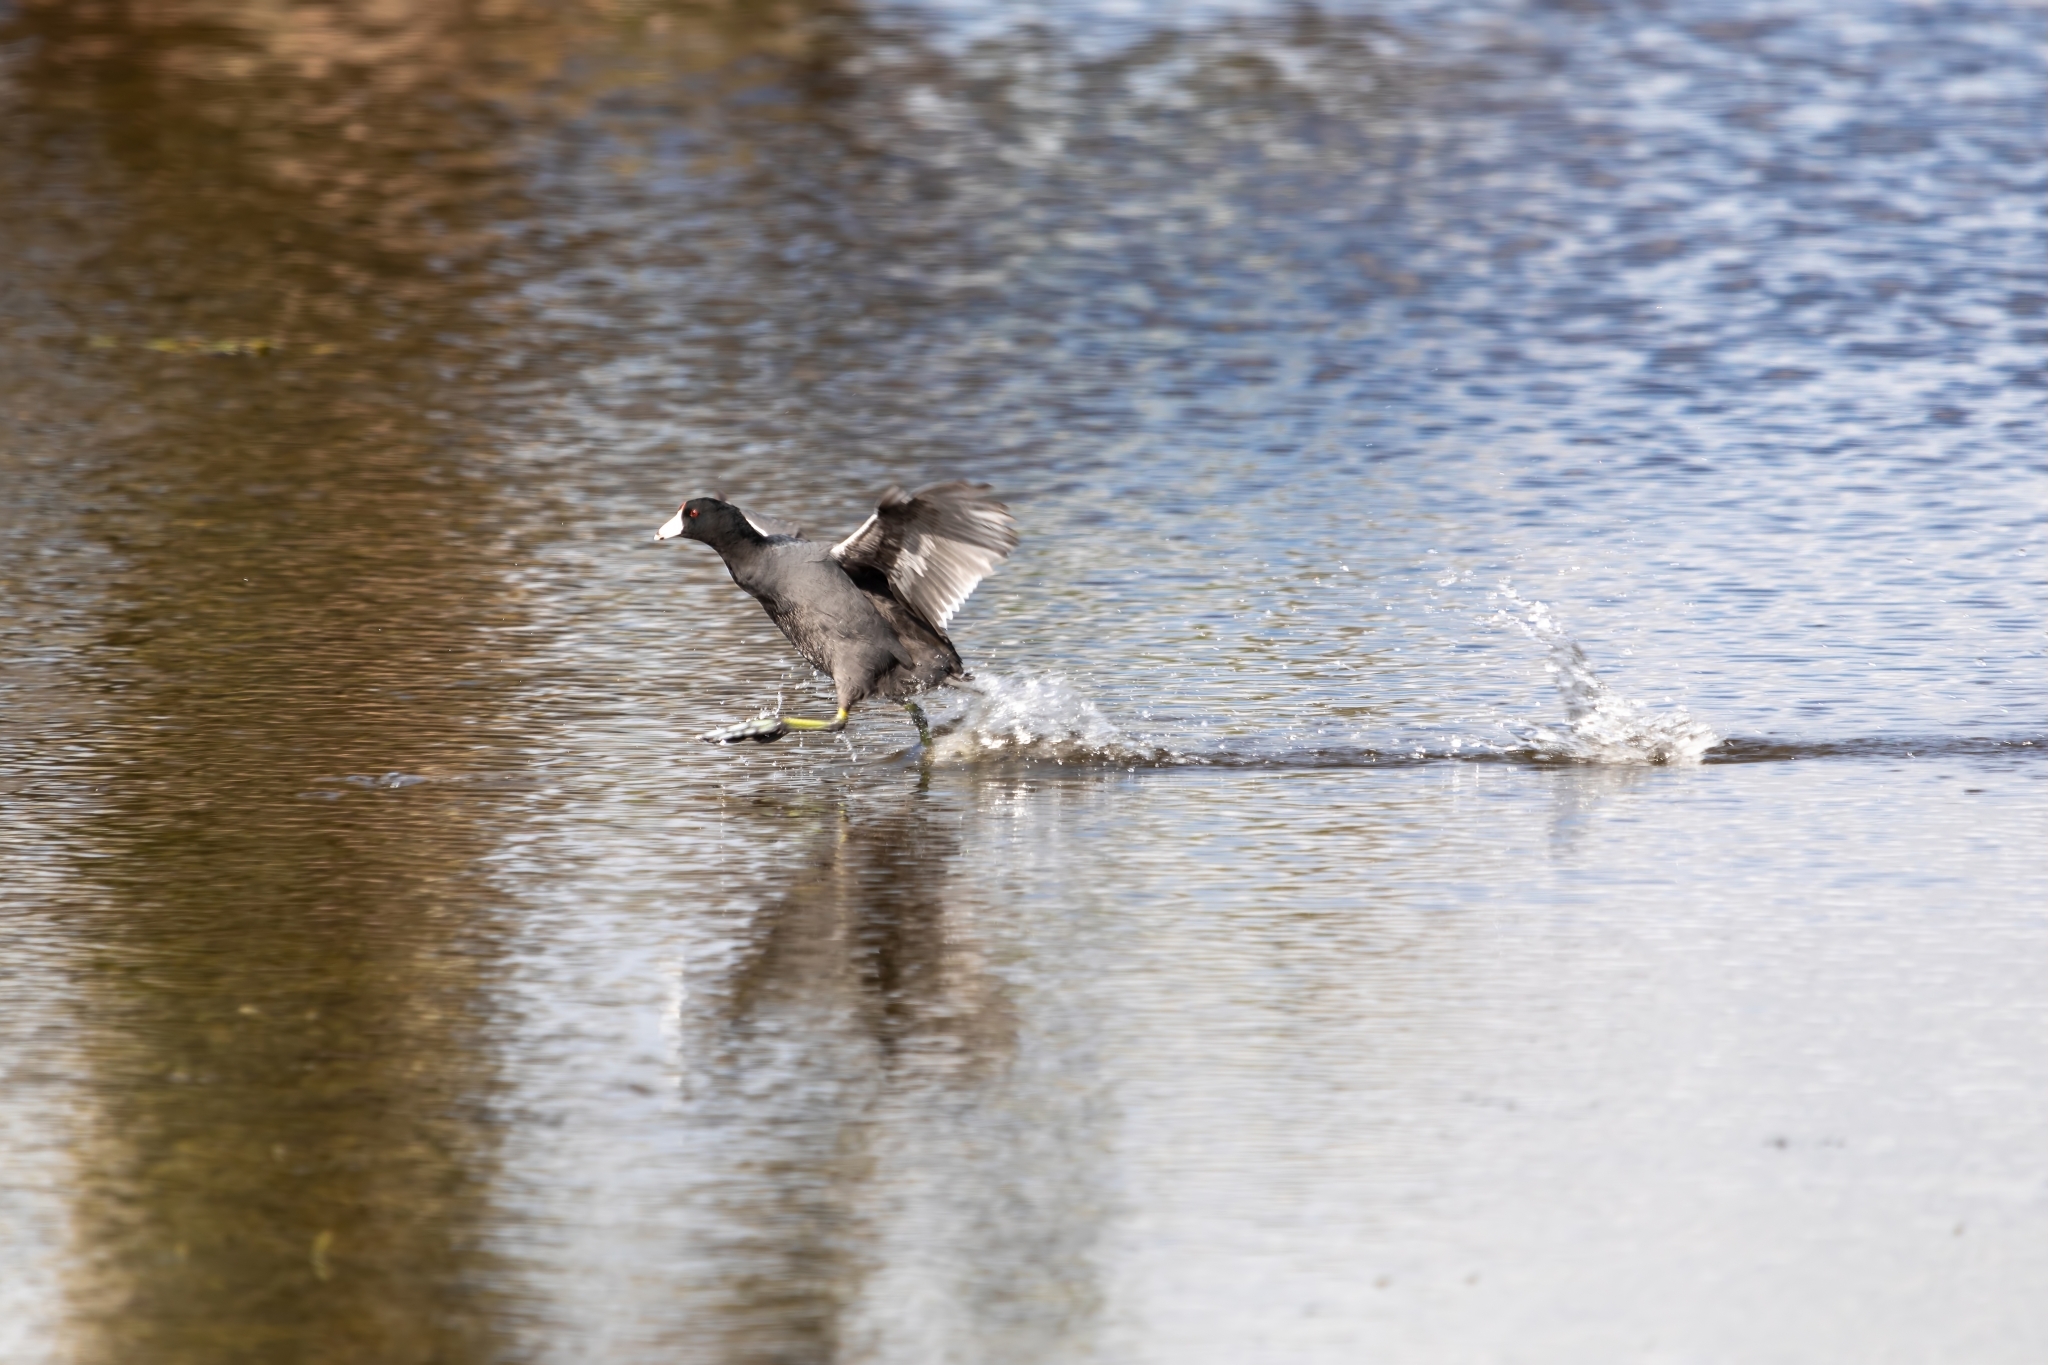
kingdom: Animalia
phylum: Chordata
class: Aves
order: Gruiformes
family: Rallidae
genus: Fulica
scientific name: Fulica americana
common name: American coot
